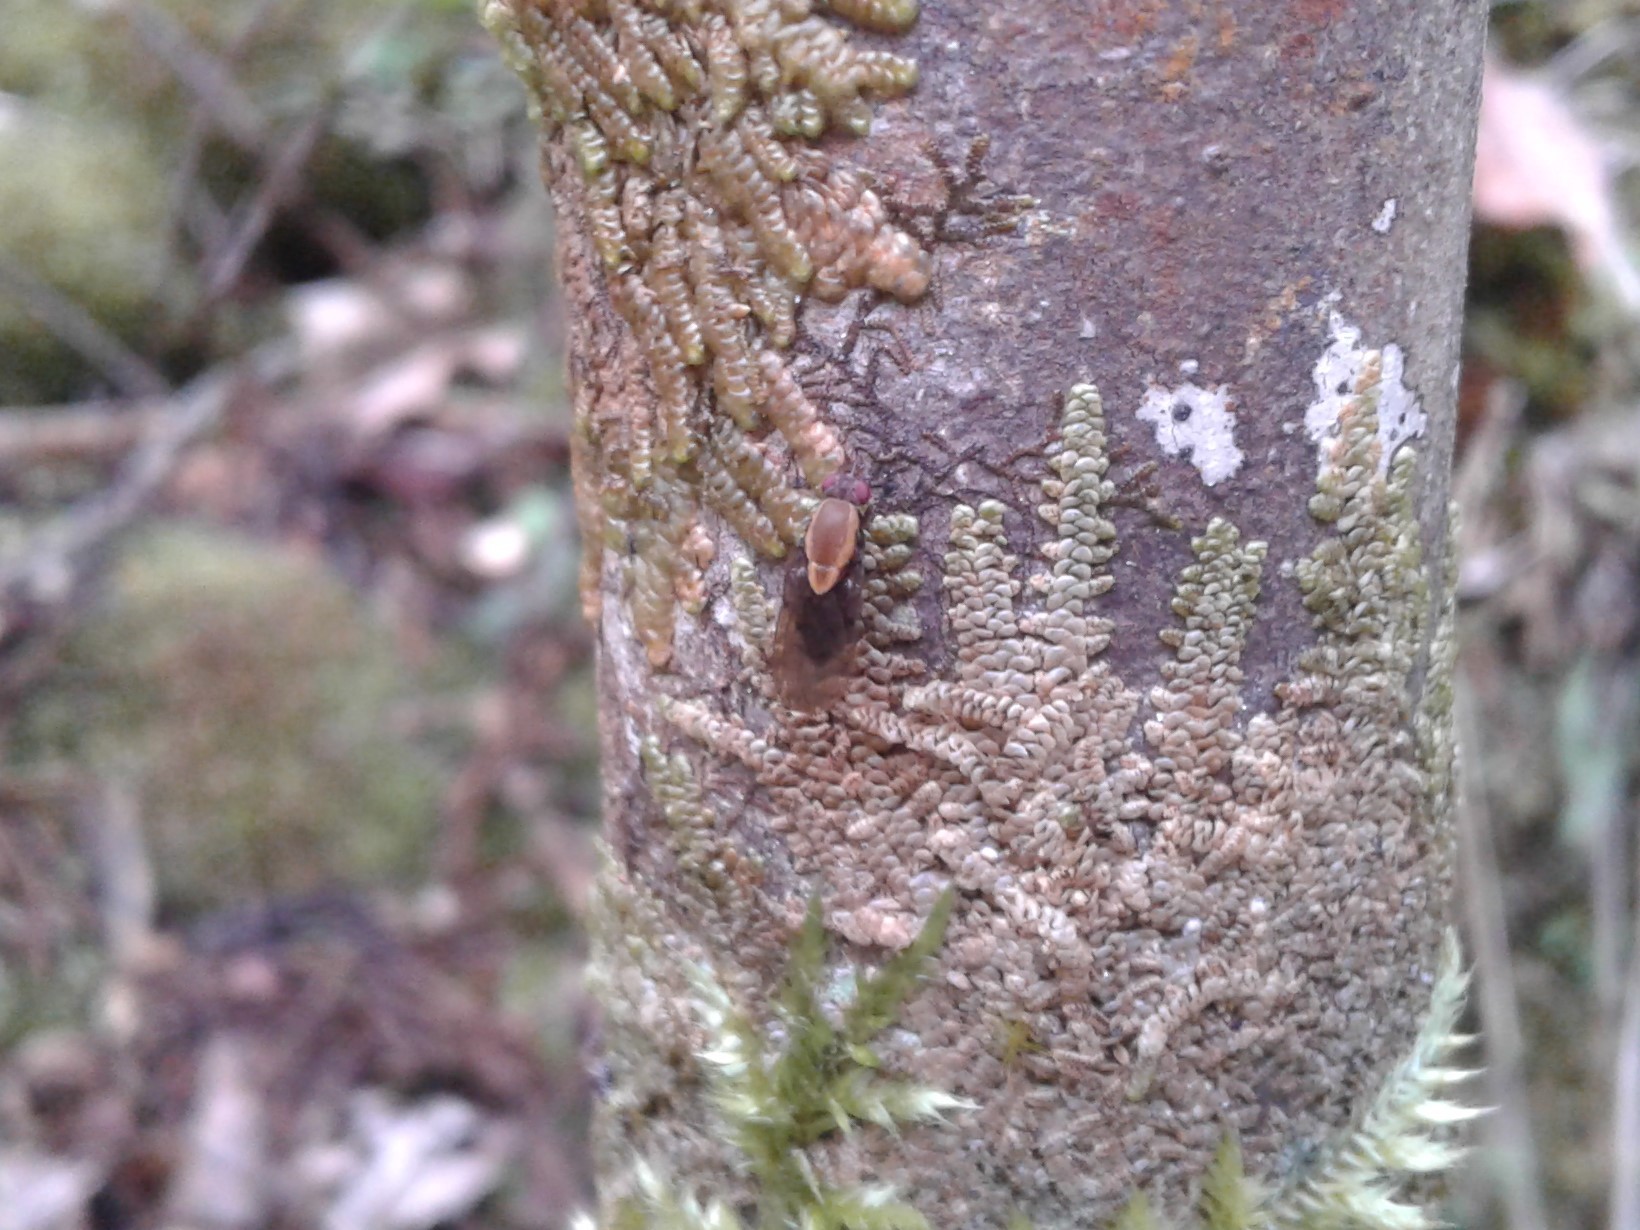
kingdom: Animalia
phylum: Arthropoda
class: Insecta
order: Diptera
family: Heleomyzidae
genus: Allophylopsis
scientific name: Allophylopsis
